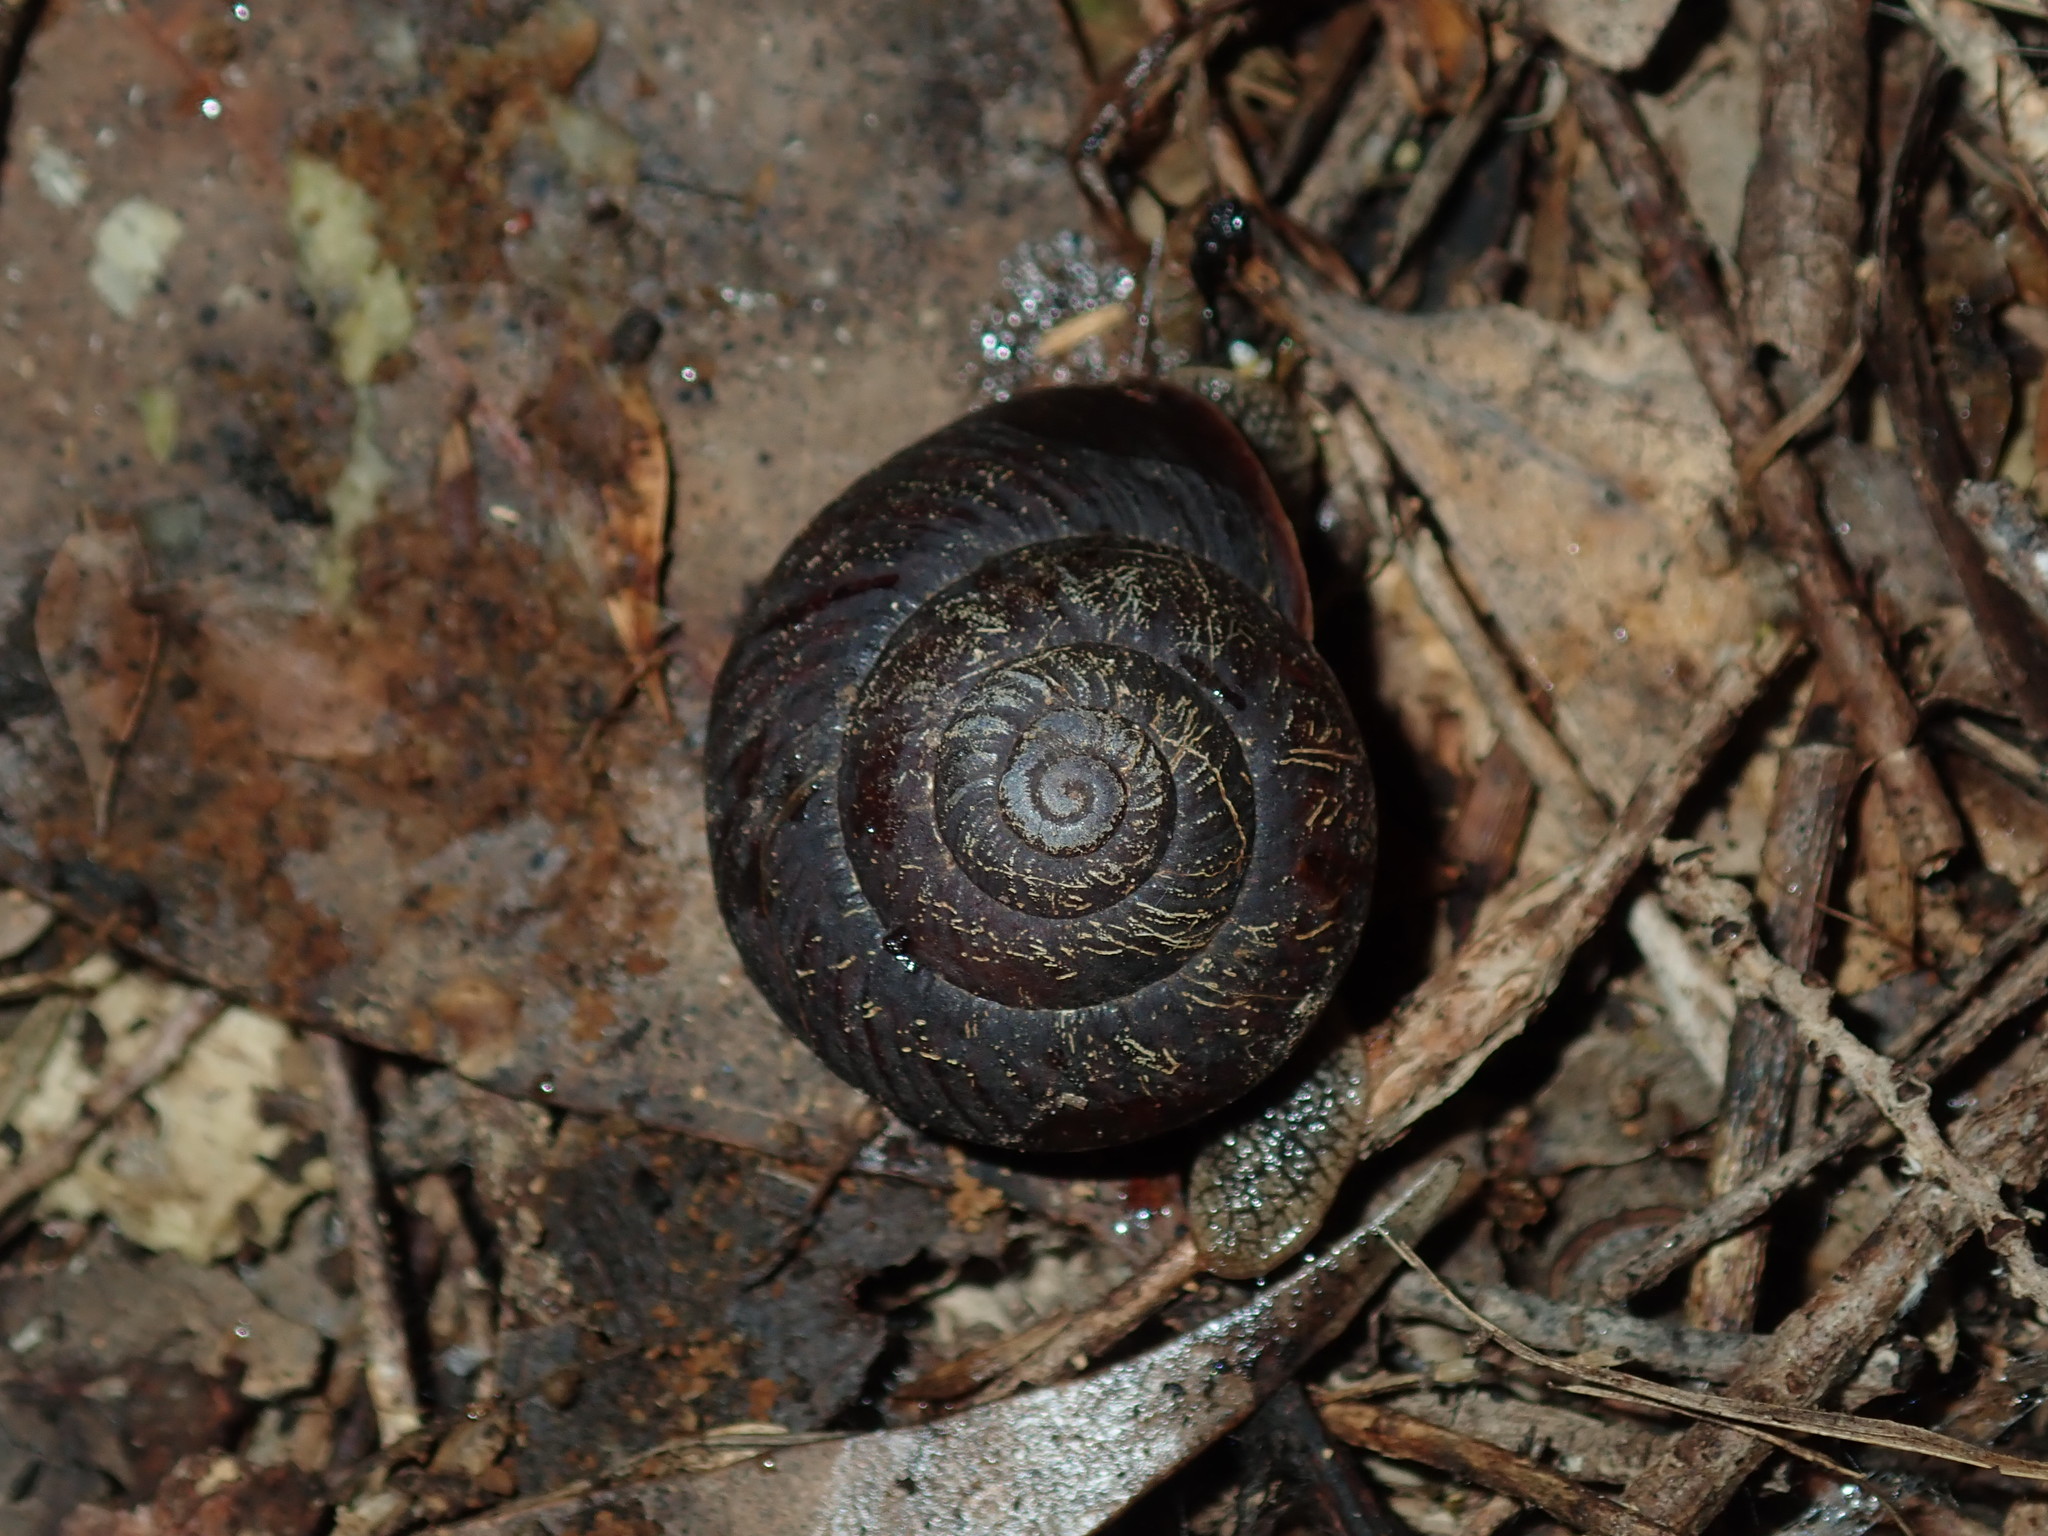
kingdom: Animalia
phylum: Mollusca
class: Gastropoda
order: Stylommatophora
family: Camaenidae
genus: Sauroconcha
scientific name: Sauroconcha sheai
